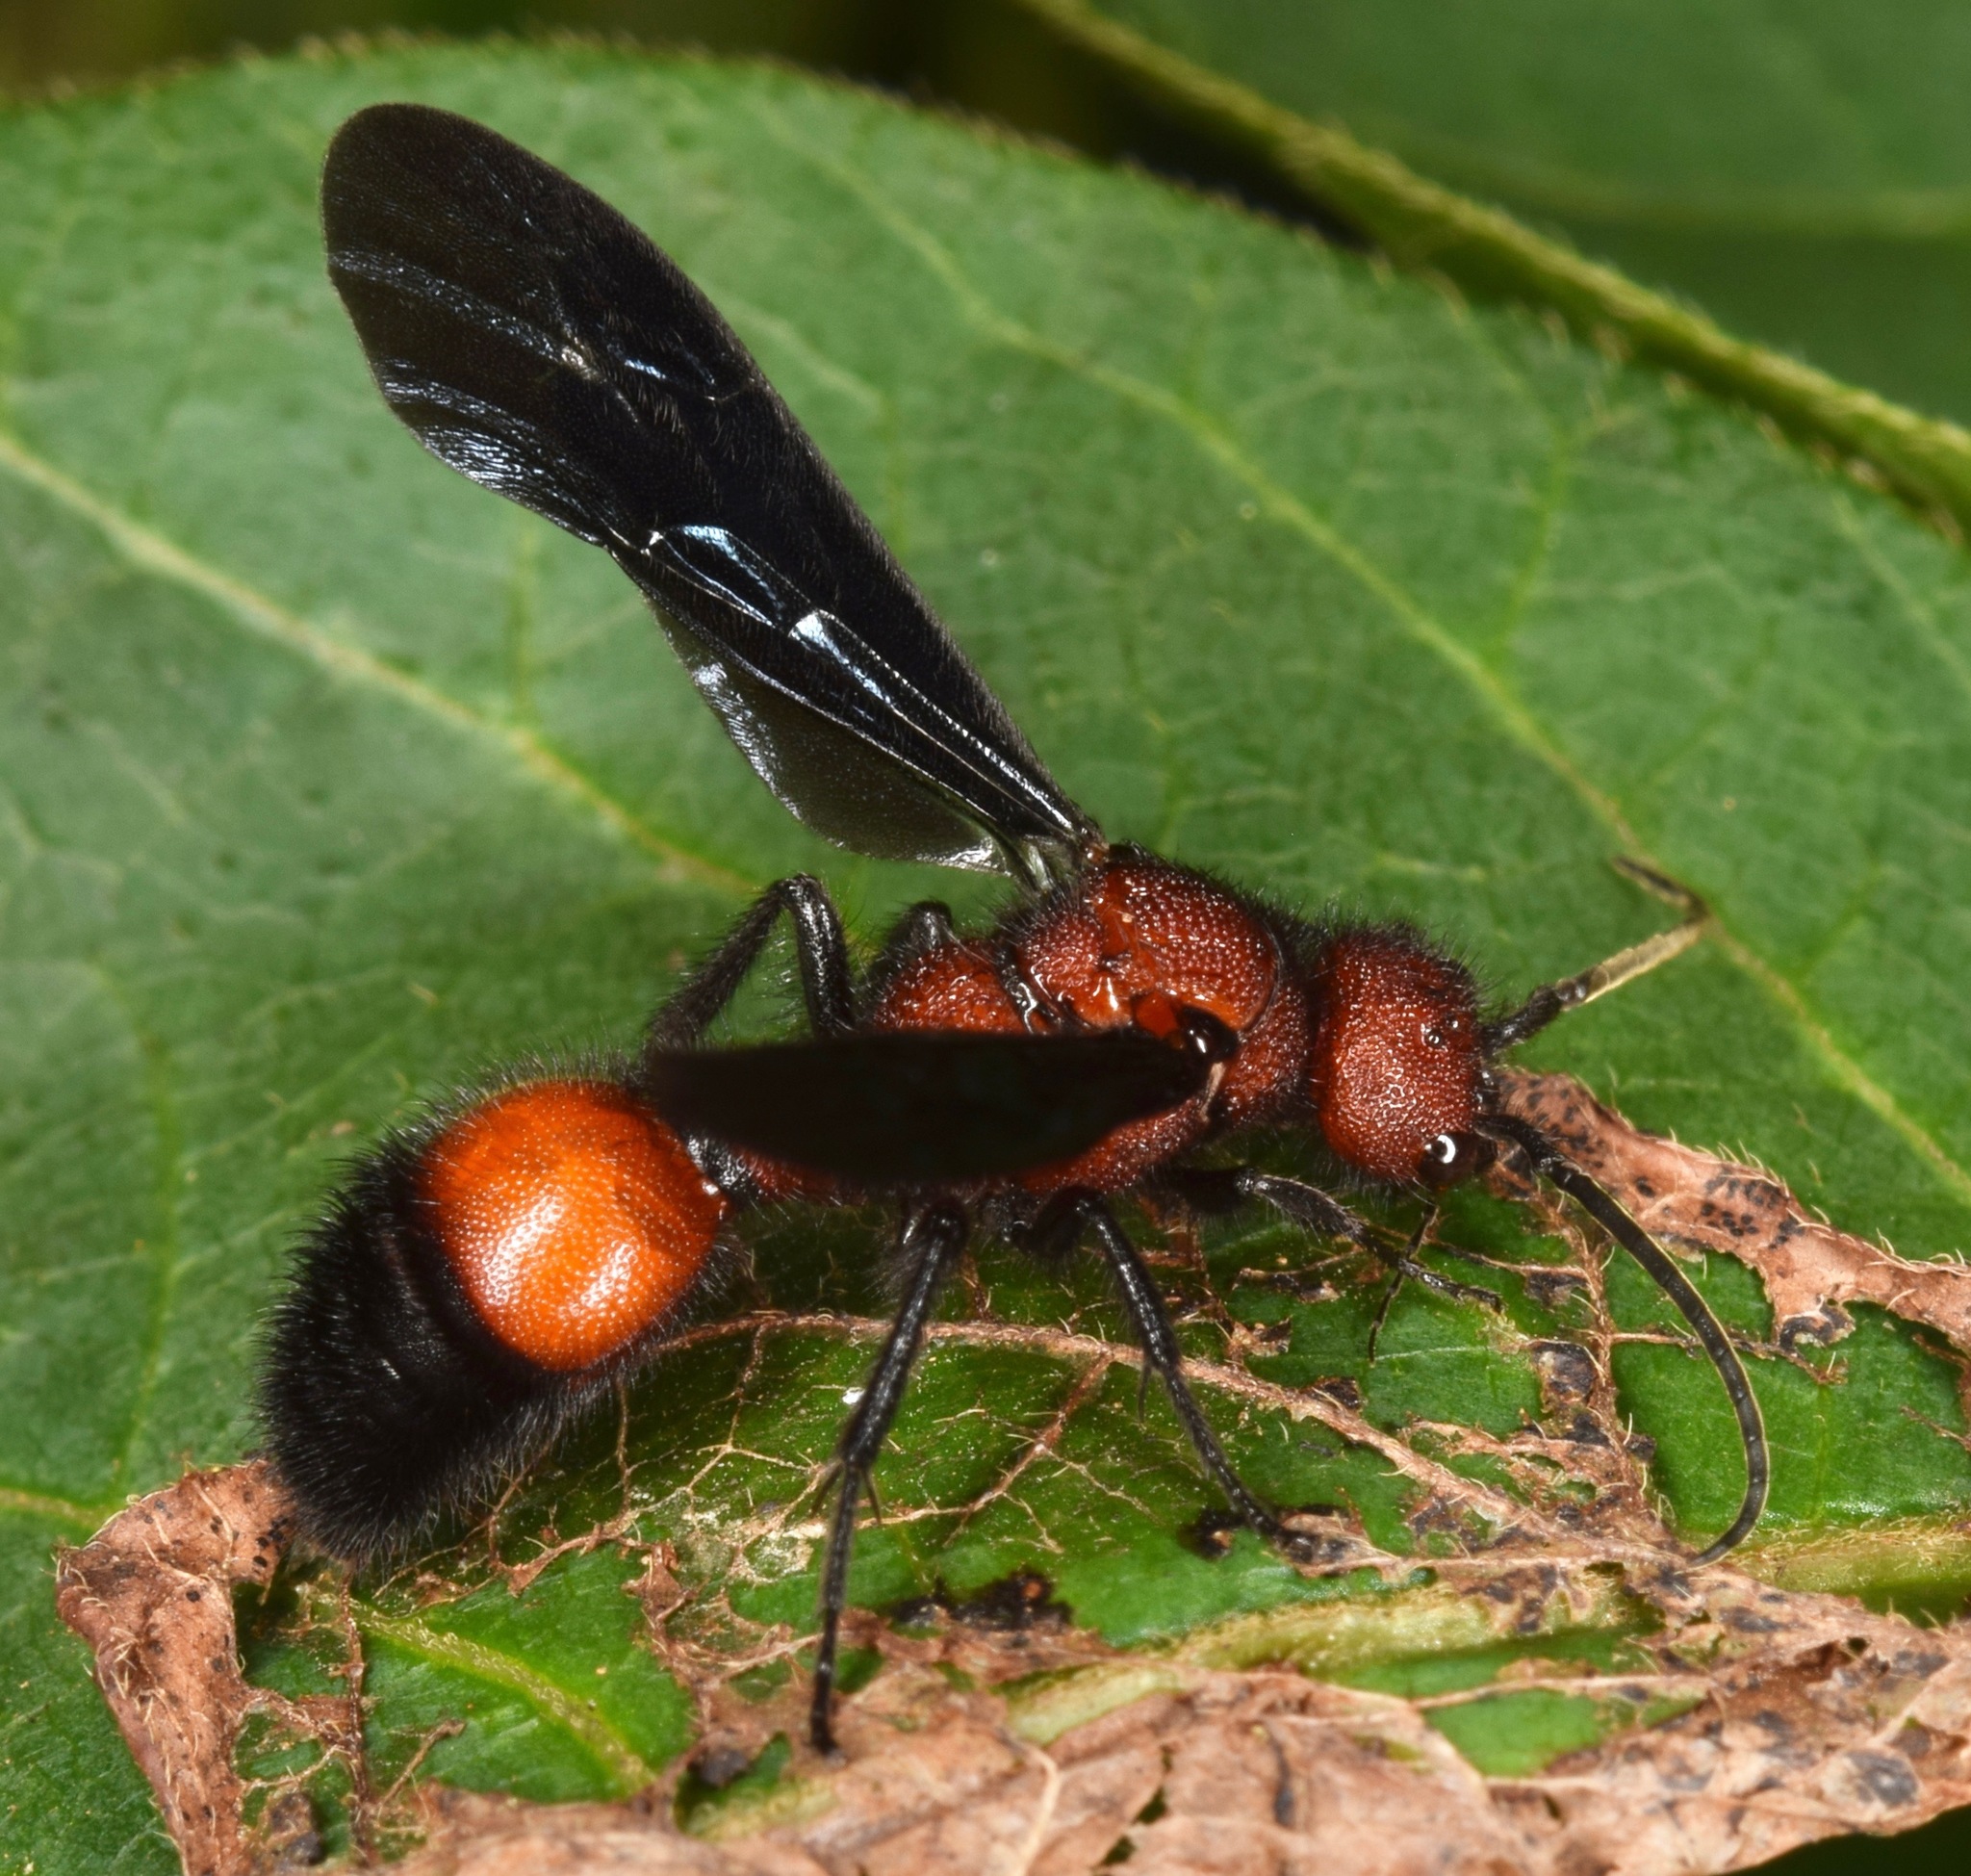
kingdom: Animalia
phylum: Arthropoda
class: Insecta
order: Hymenoptera
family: Mutillidae
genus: Sphaeropthalma
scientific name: Sphaeropthalma
